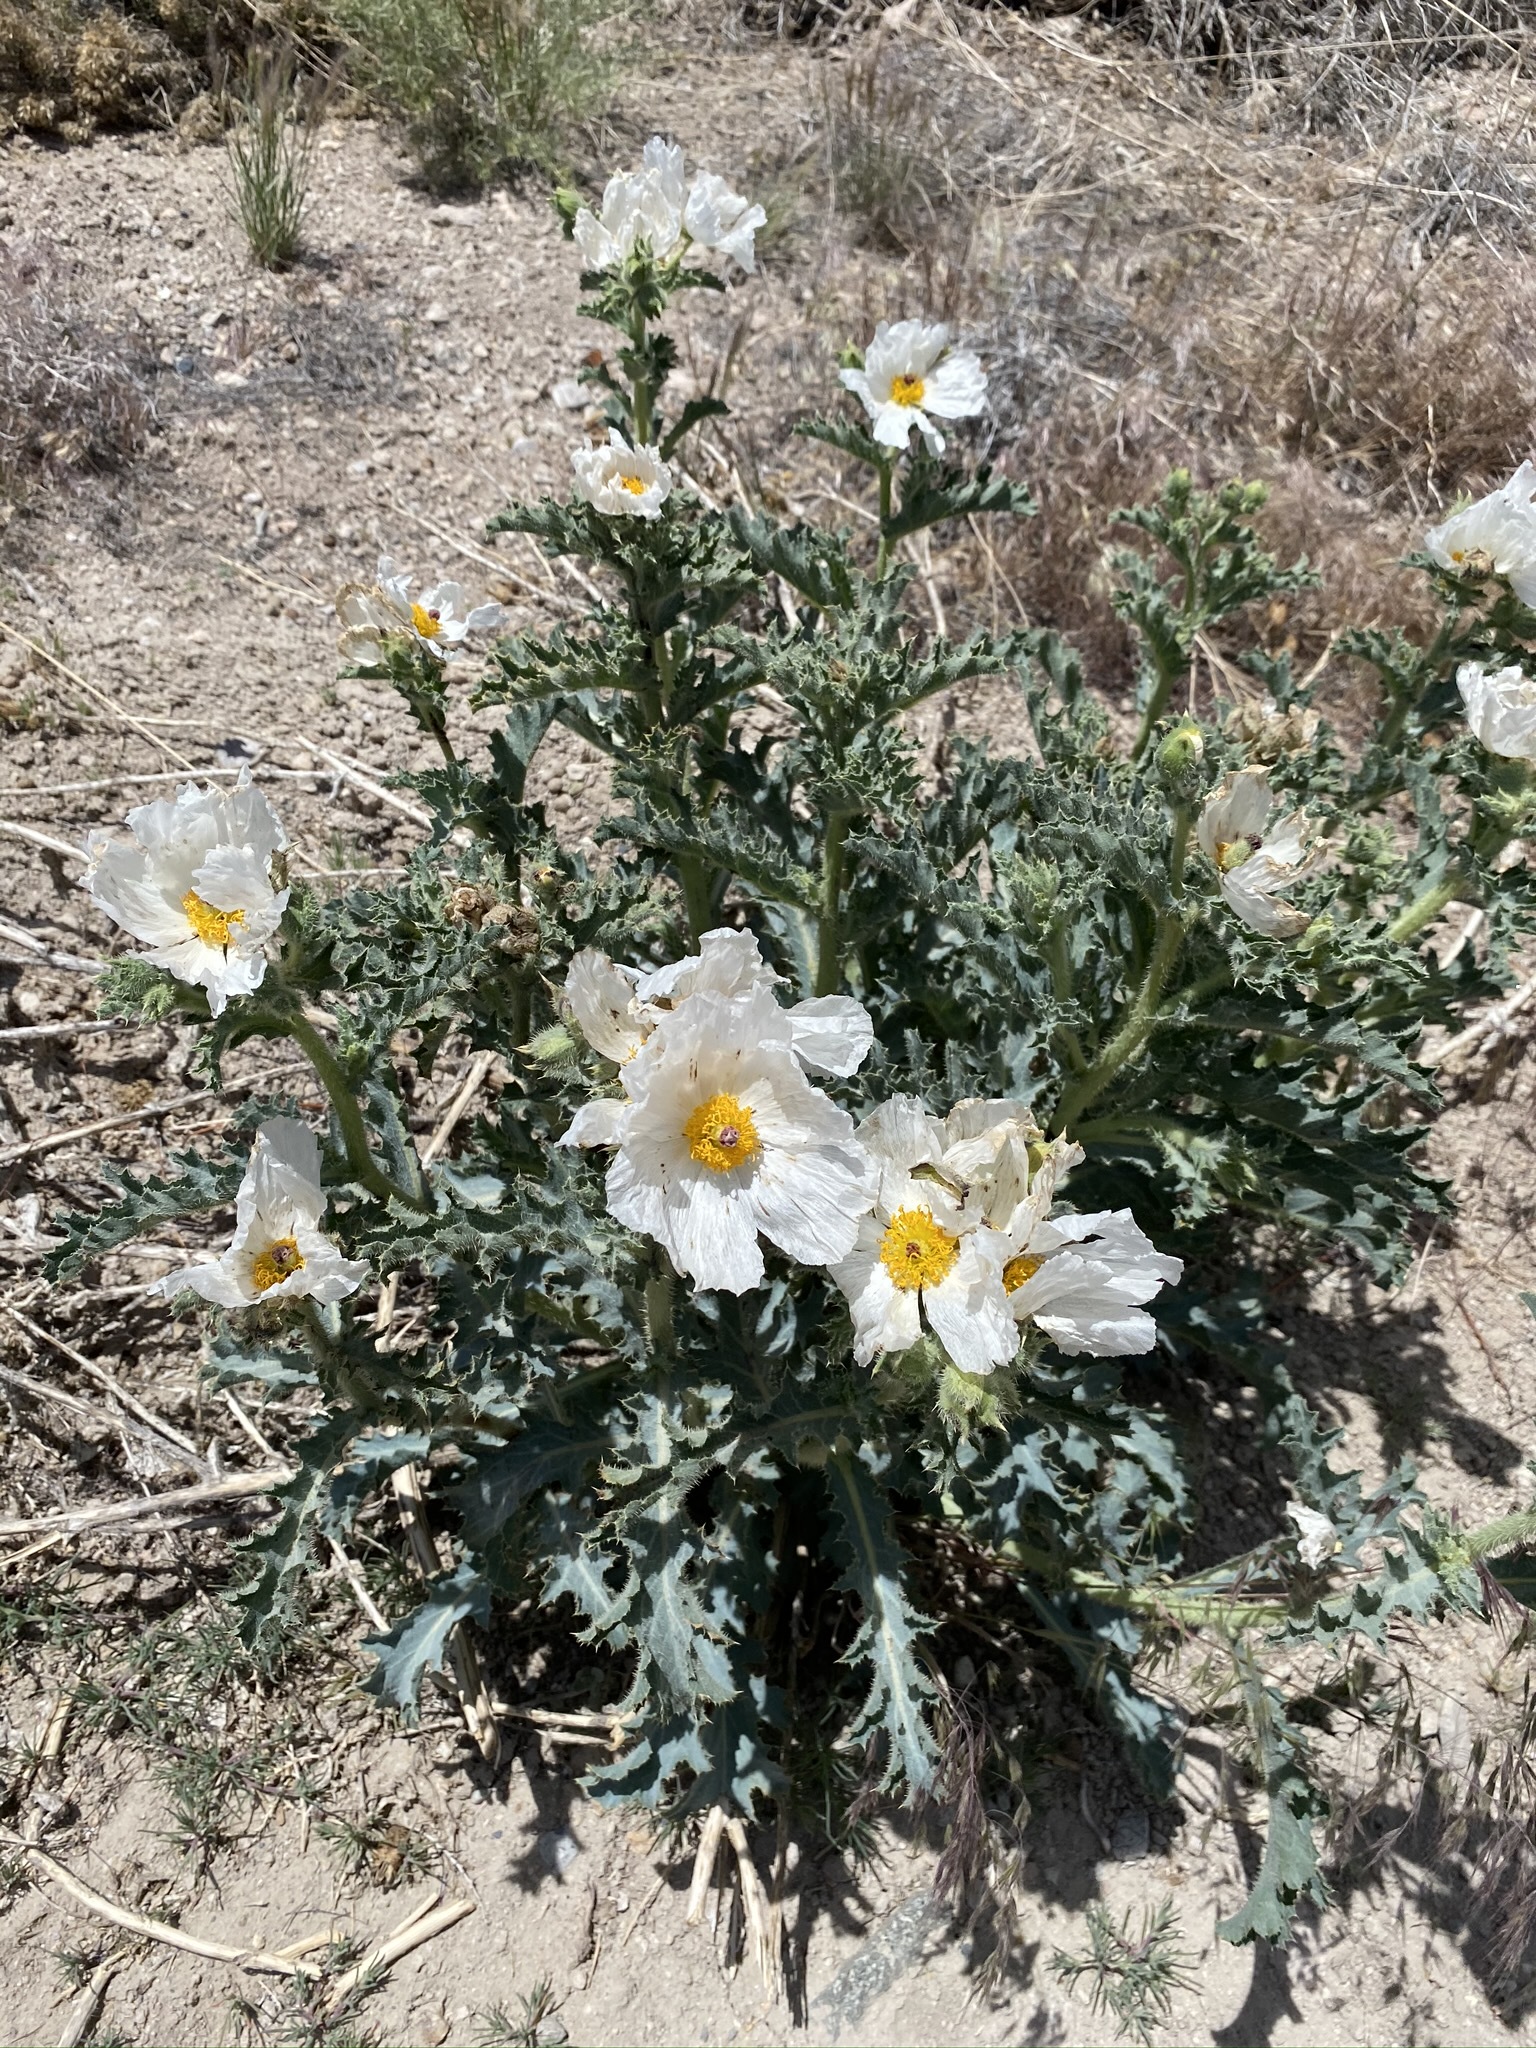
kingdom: Plantae
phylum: Tracheophyta
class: Magnoliopsida
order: Ranunculales
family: Papaveraceae
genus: Argemone
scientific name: Argemone munita
